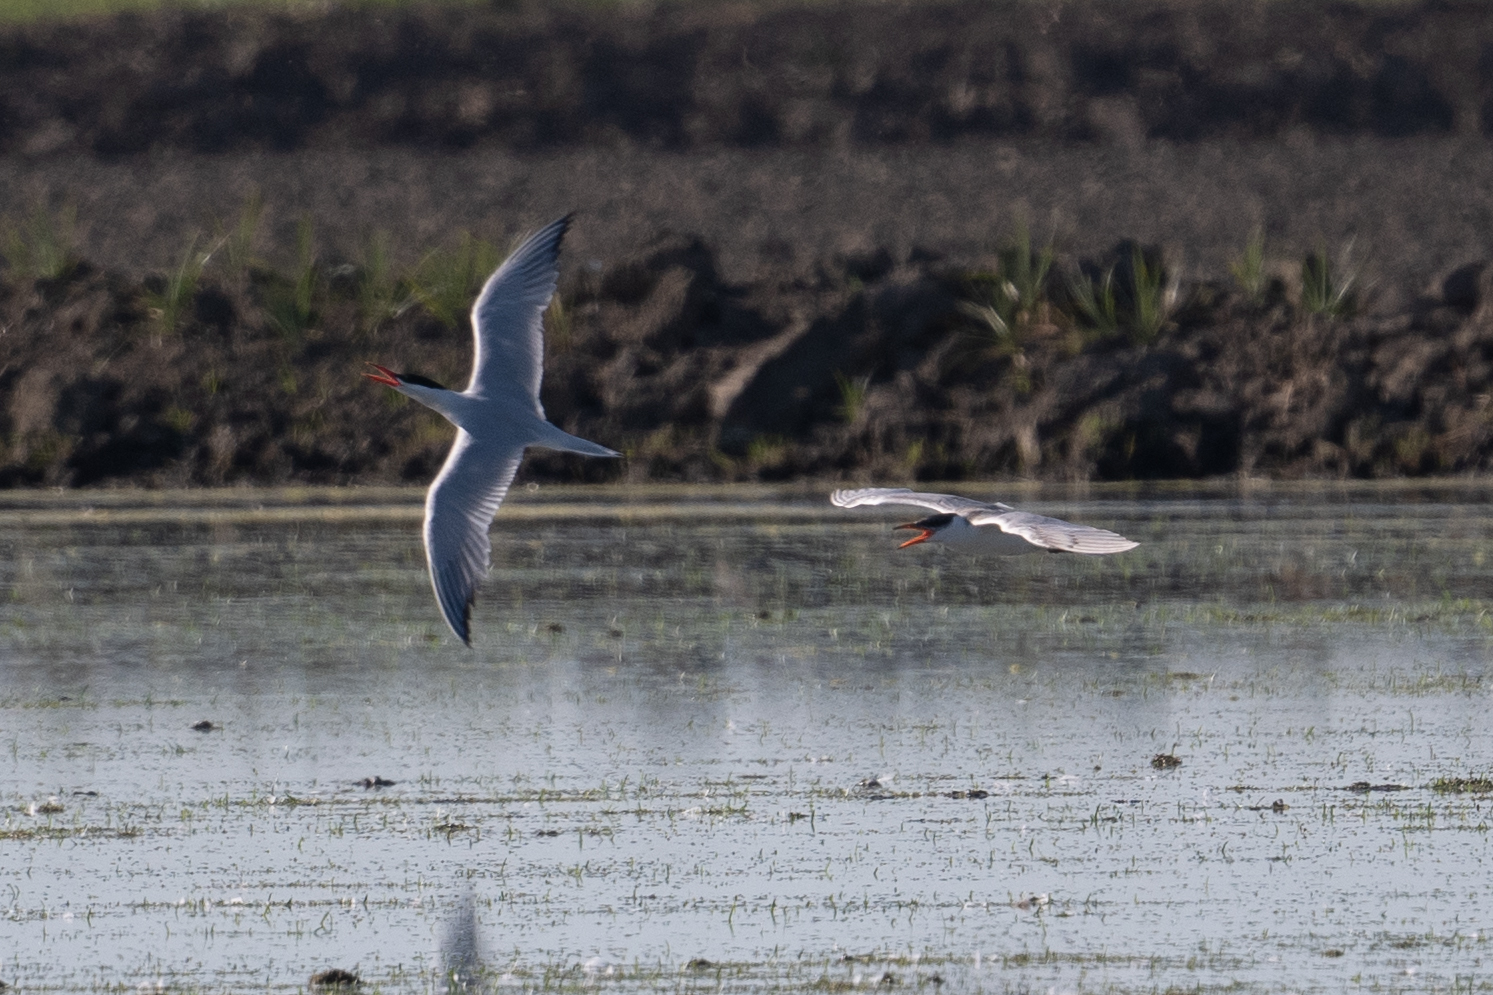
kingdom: Animalia
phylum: Chordata
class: Aves
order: Charadriiformes
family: Laridae
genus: Hydroprogne
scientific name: Hydroprogne caspia
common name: Caspian tern
